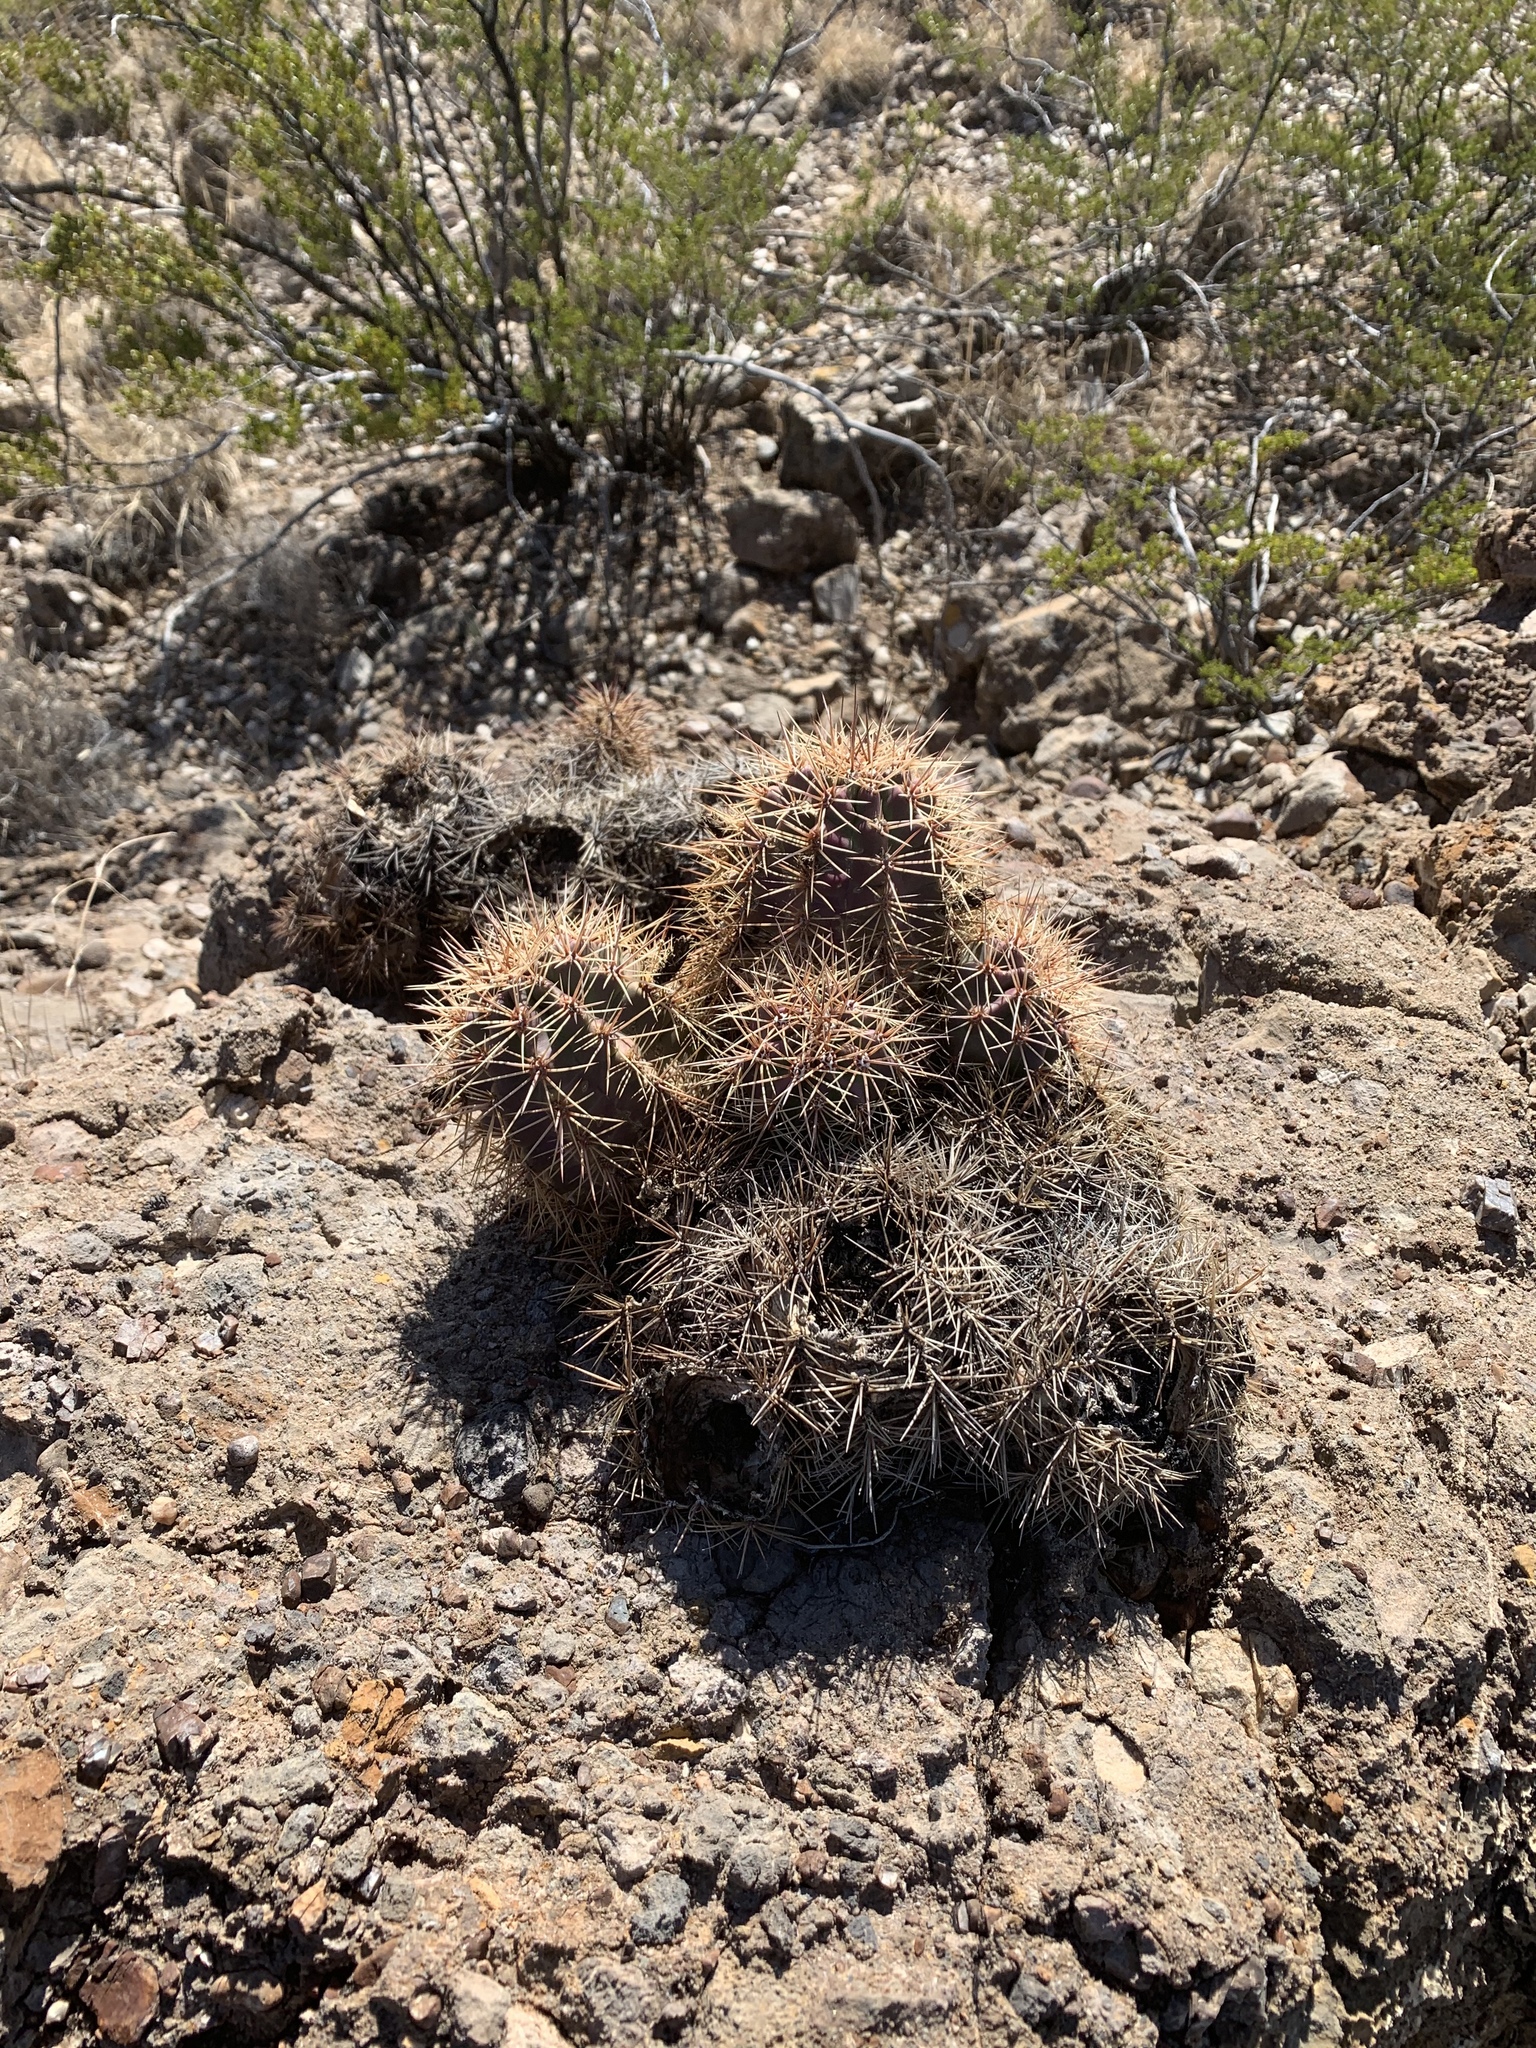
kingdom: Plantae
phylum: Tracheophyta
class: Magnoliopsida
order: Caryophyllales
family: Cactaceae
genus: Echinocereus
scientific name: Echinocereus coccineus
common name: Scarlet hedgehog cactus
